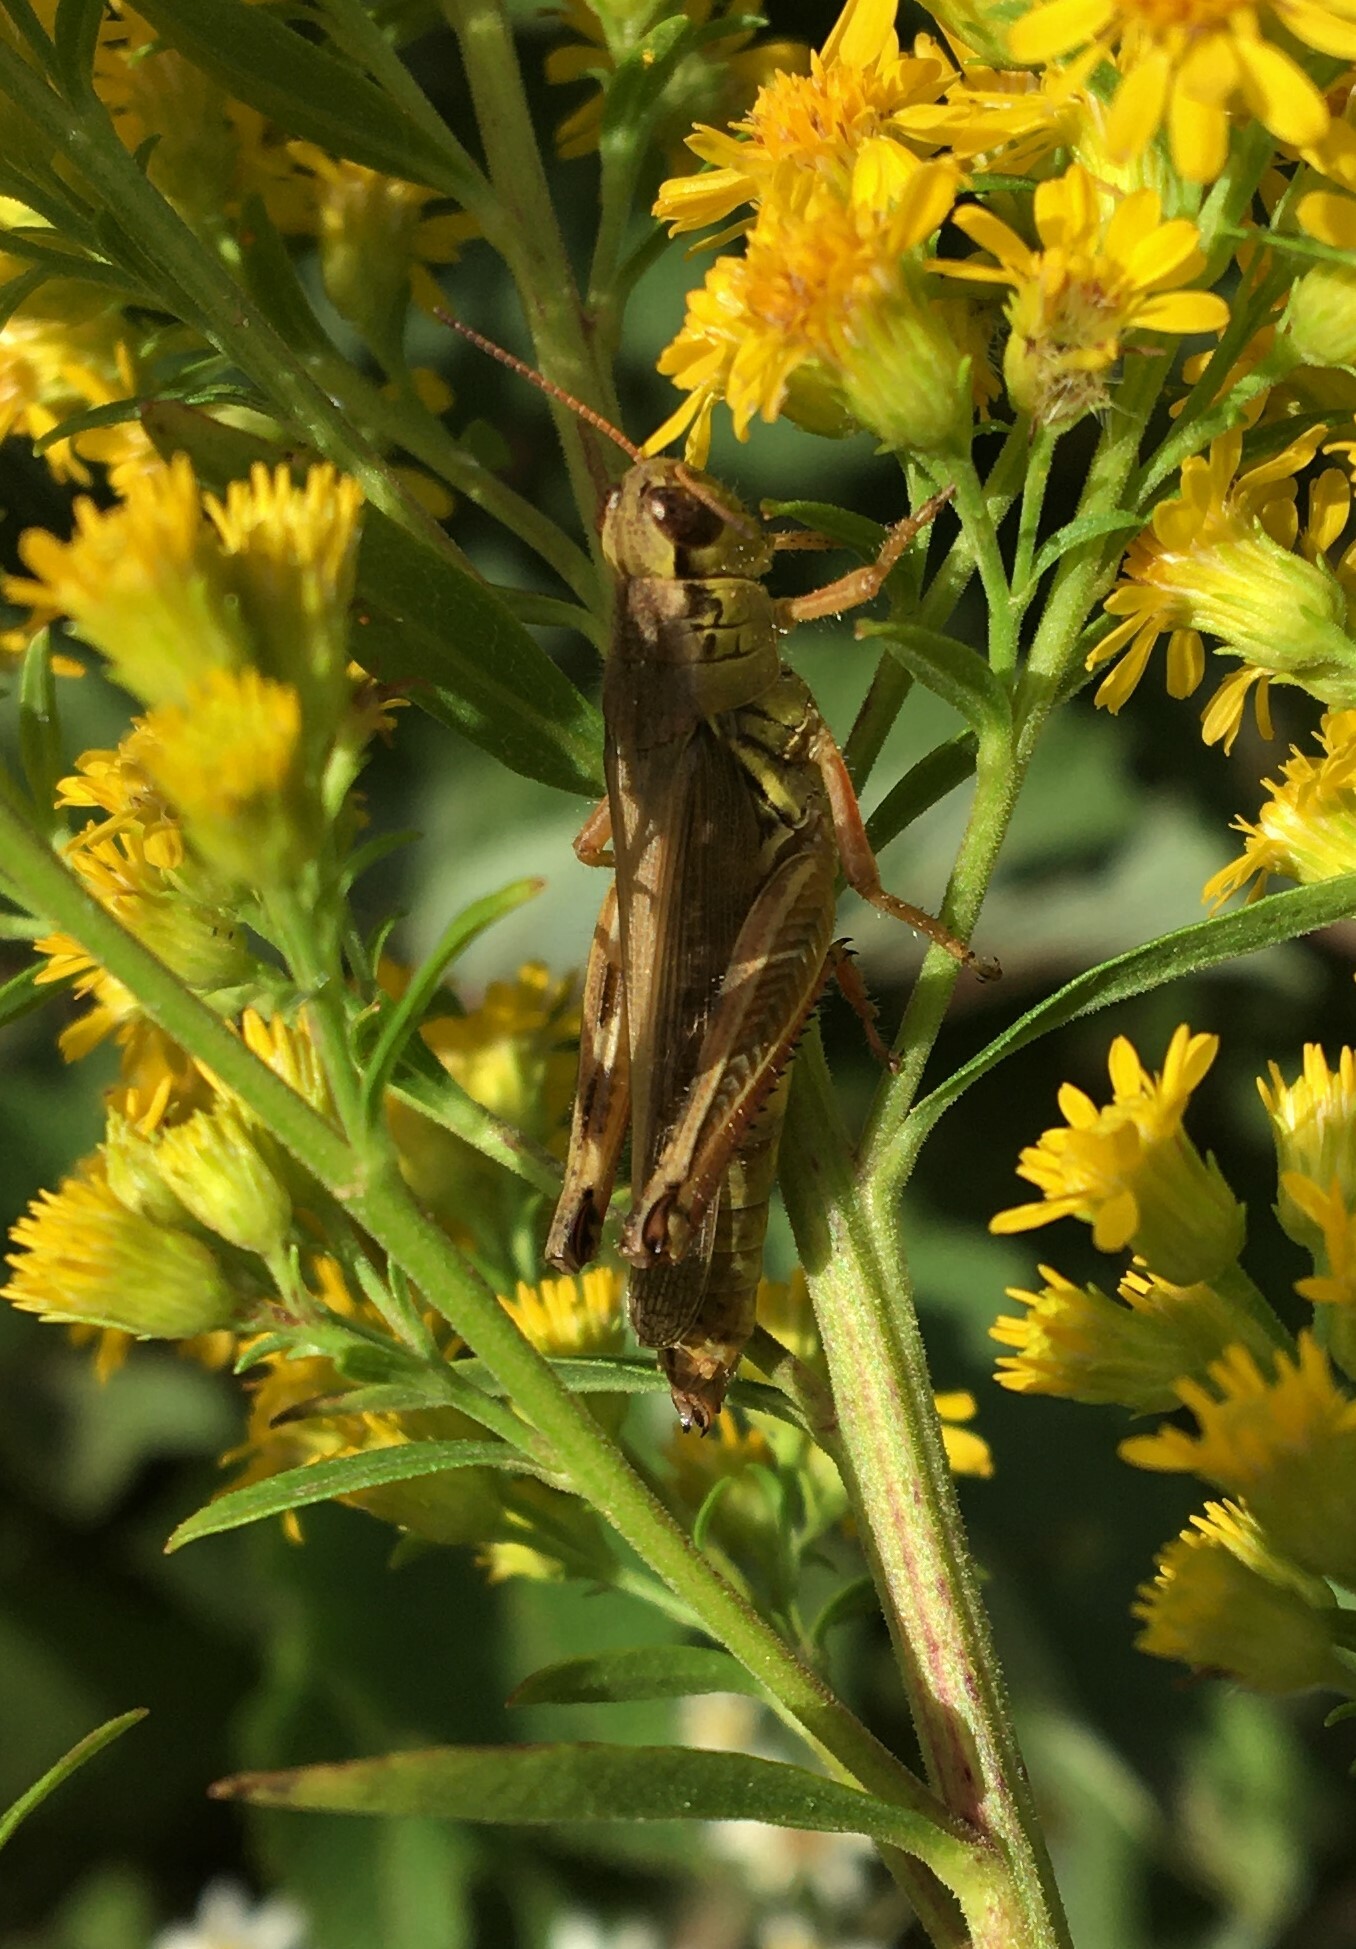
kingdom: Animalia
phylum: Arthropoda
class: Insecta
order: Orthoptera
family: Acrididae
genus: Melanoplus
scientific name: Melanoplus femurrubrum
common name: Red-legged grasshopper
